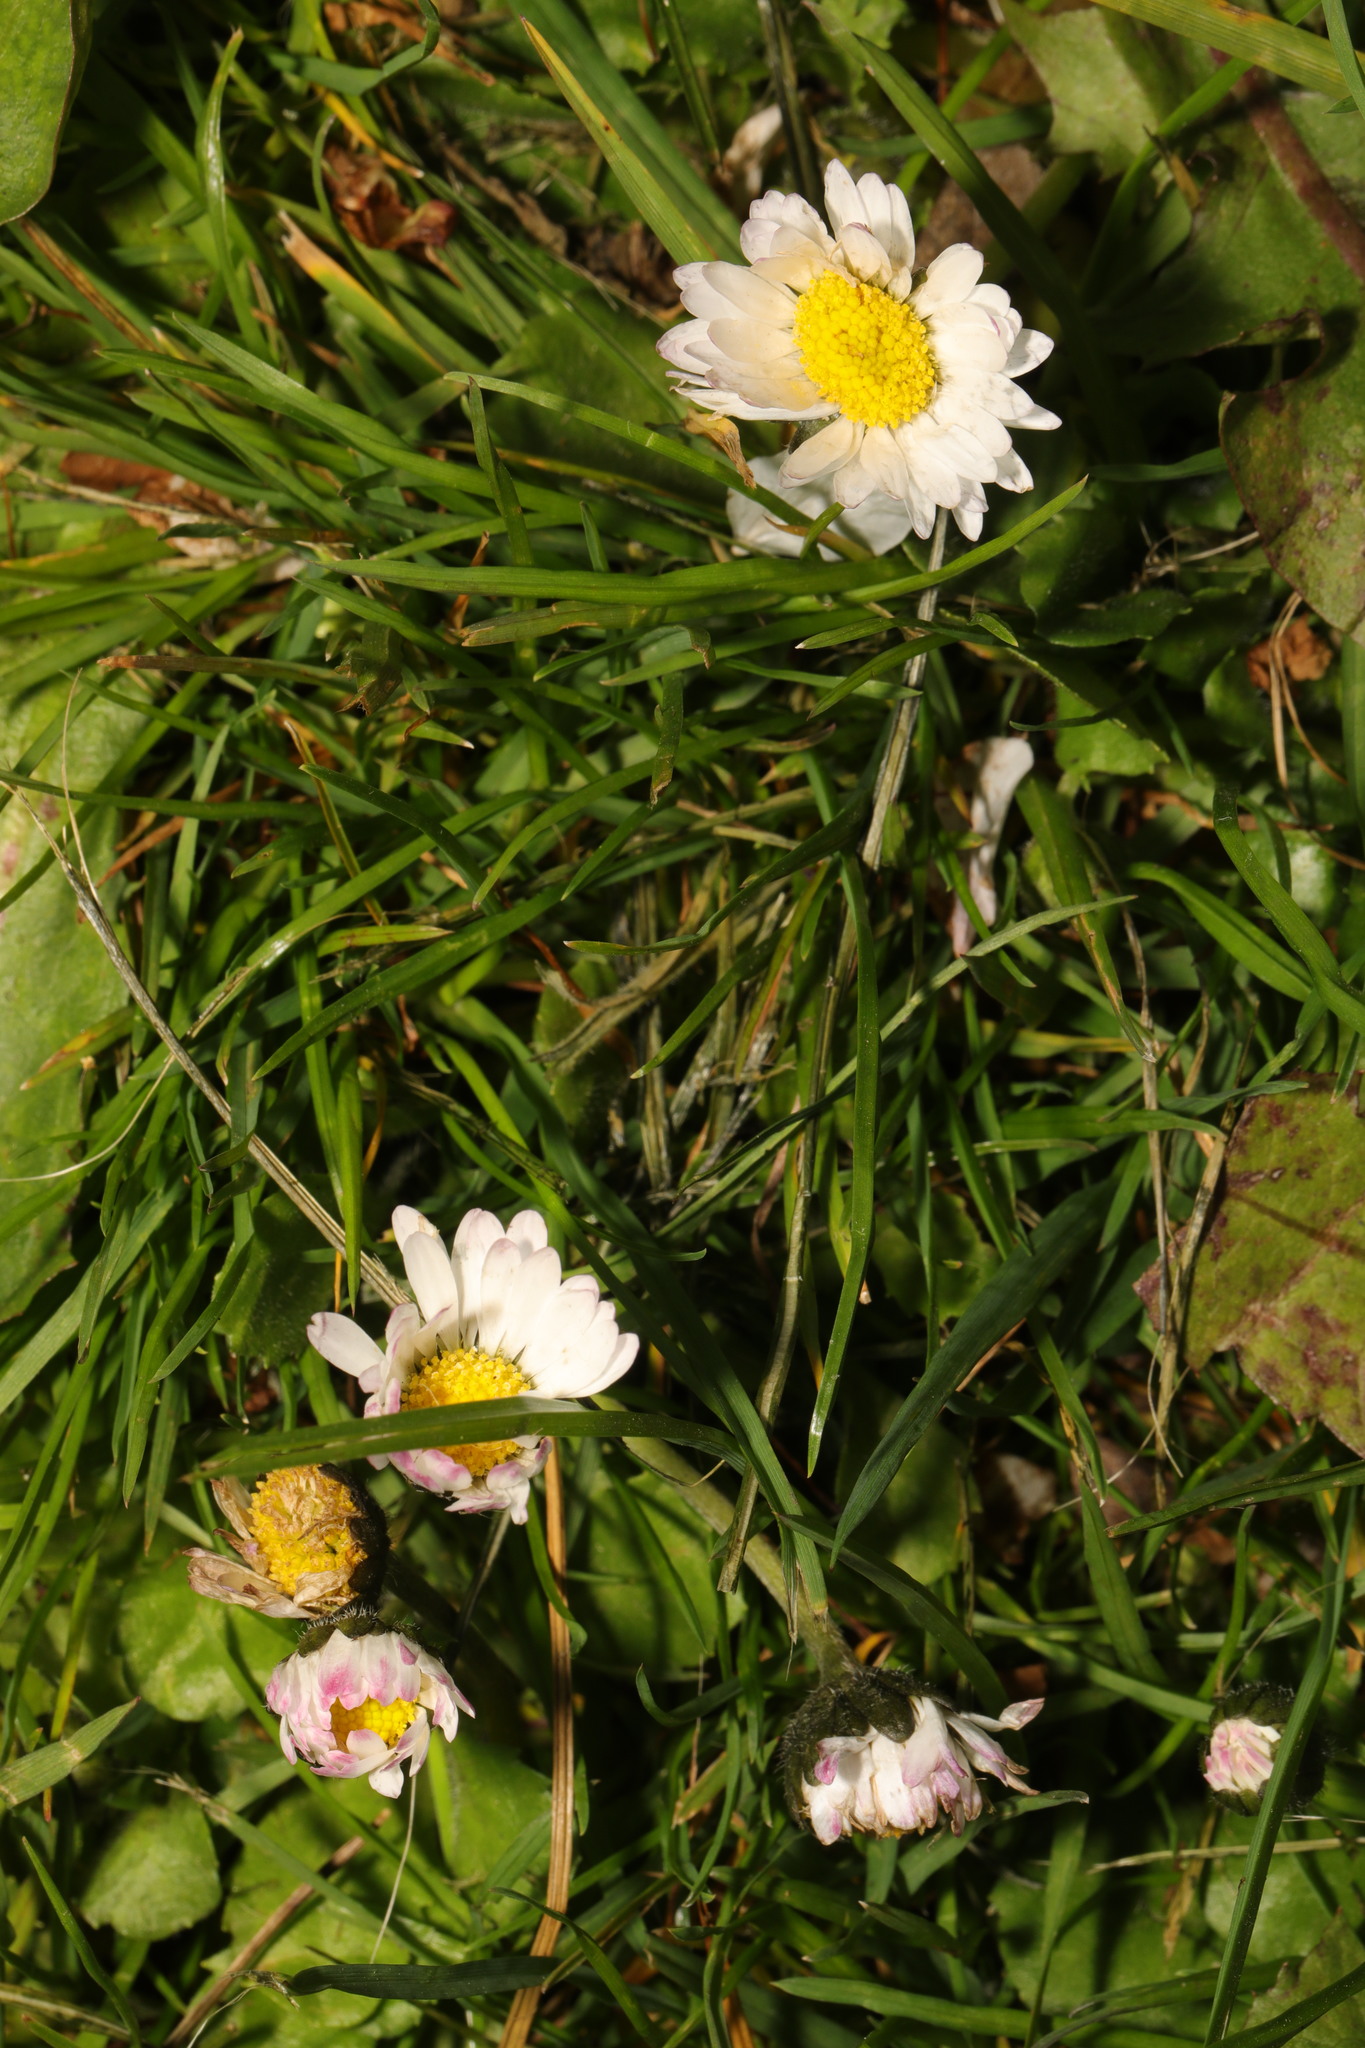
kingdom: Plantae
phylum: Tracheophyta
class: Magnoliopsida
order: Asterales
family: Asteraceae
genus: Bellis
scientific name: Bellis perennis
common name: Lawndaisy
